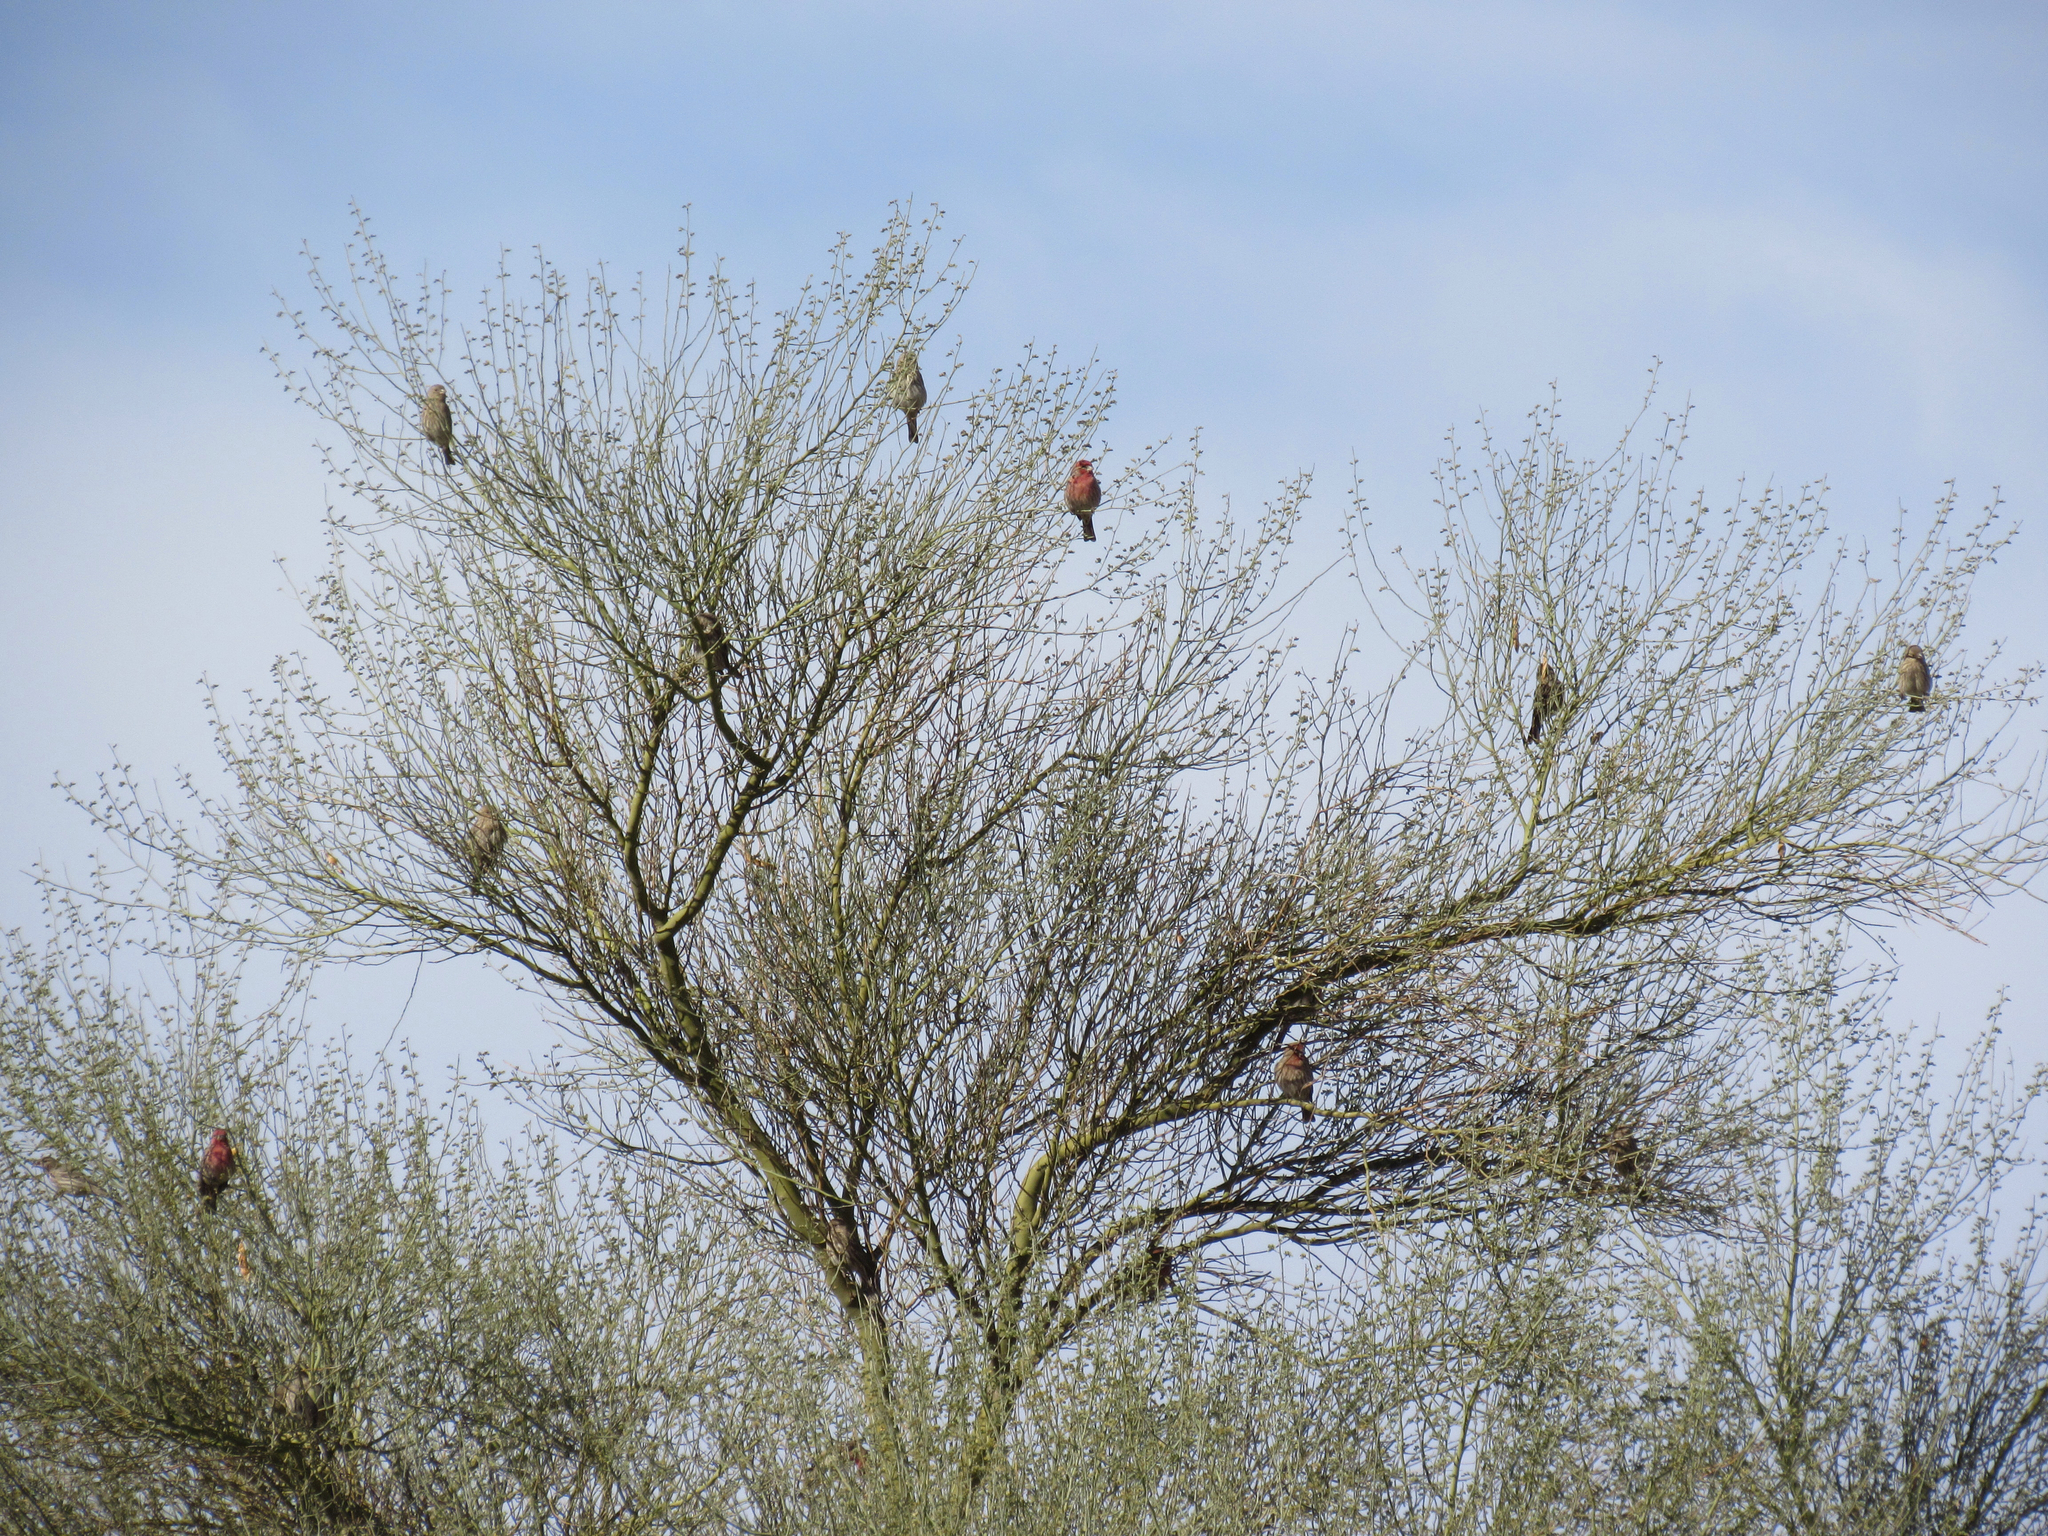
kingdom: Animalia
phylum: Chordata
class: Aves
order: Passeriformes
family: Fringillidae
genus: Haemorhous
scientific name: Haemorhous mexicanus
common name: House finch
